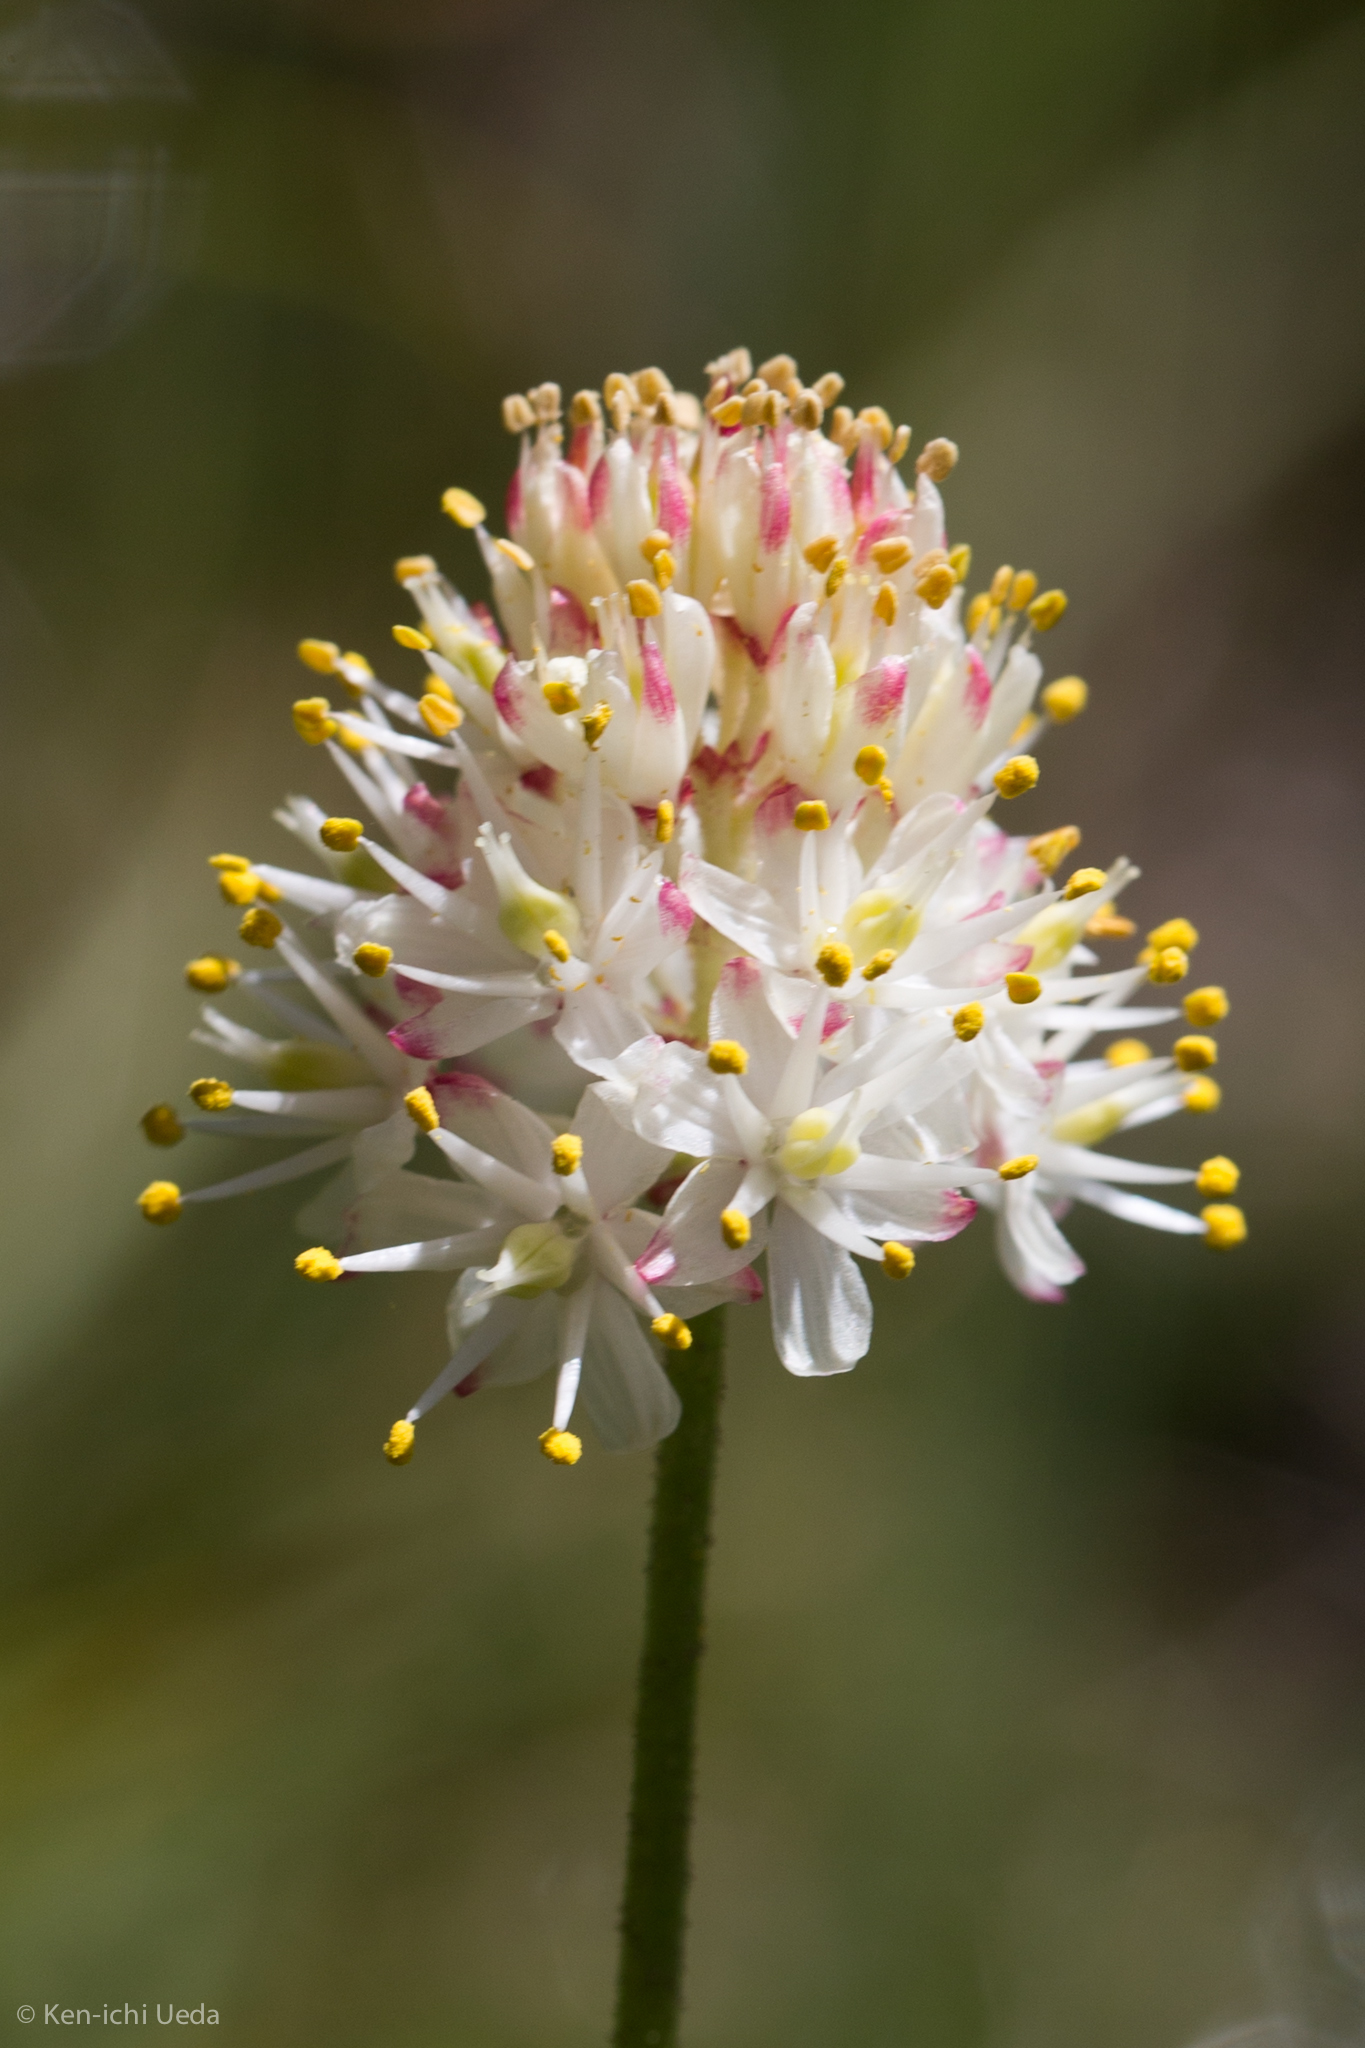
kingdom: Plantae
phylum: Tracheophyta
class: Liliopsida
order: Alismatales
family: Tofieldiaceae
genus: Triantha
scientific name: Triantha occidentalis
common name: Western false asphodel
